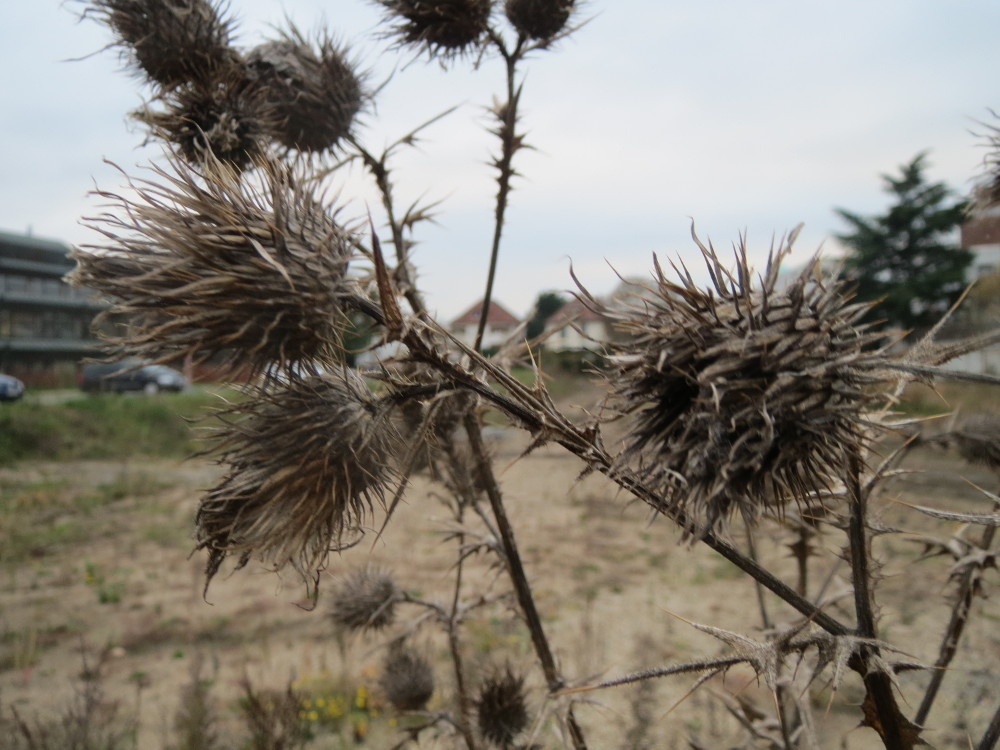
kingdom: Plantae
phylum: Tracheophyta
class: Magnoliopsida
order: Asterales
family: Asteraceae
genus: Cirsium
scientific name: Cirsium vulgare
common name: Bull thistle
